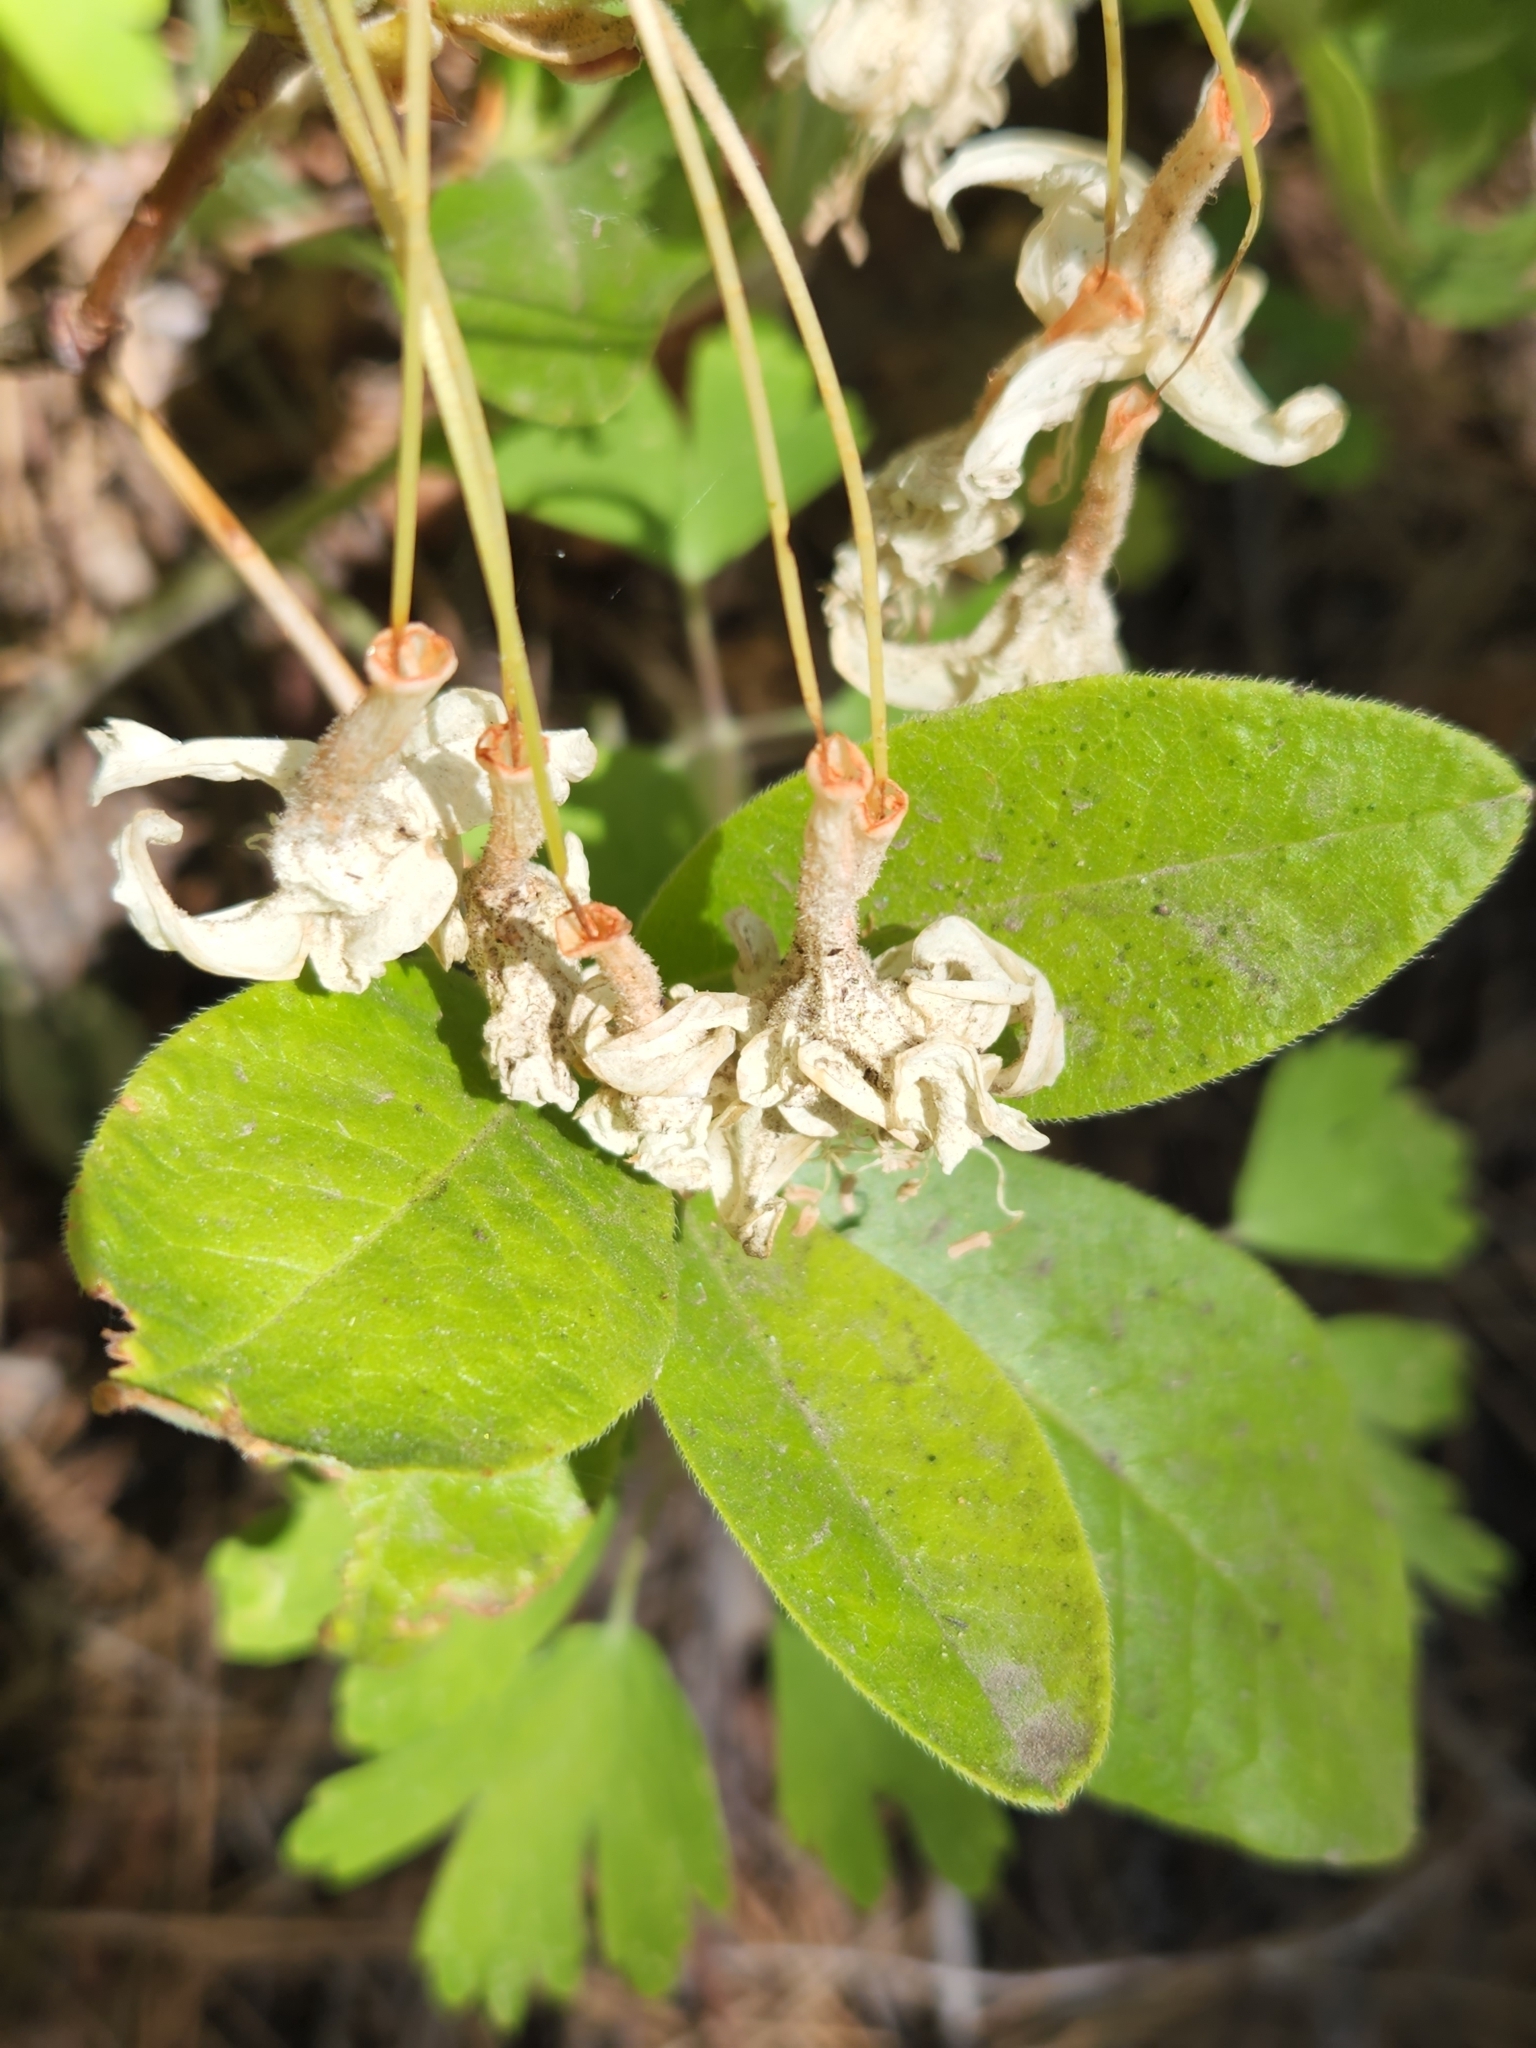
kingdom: Plantae
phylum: Tracheophyta
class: Magnoliopsida
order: Ericales
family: Ericaceae
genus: Rhododendron
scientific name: Rhododendron occidentale
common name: Western azalea
